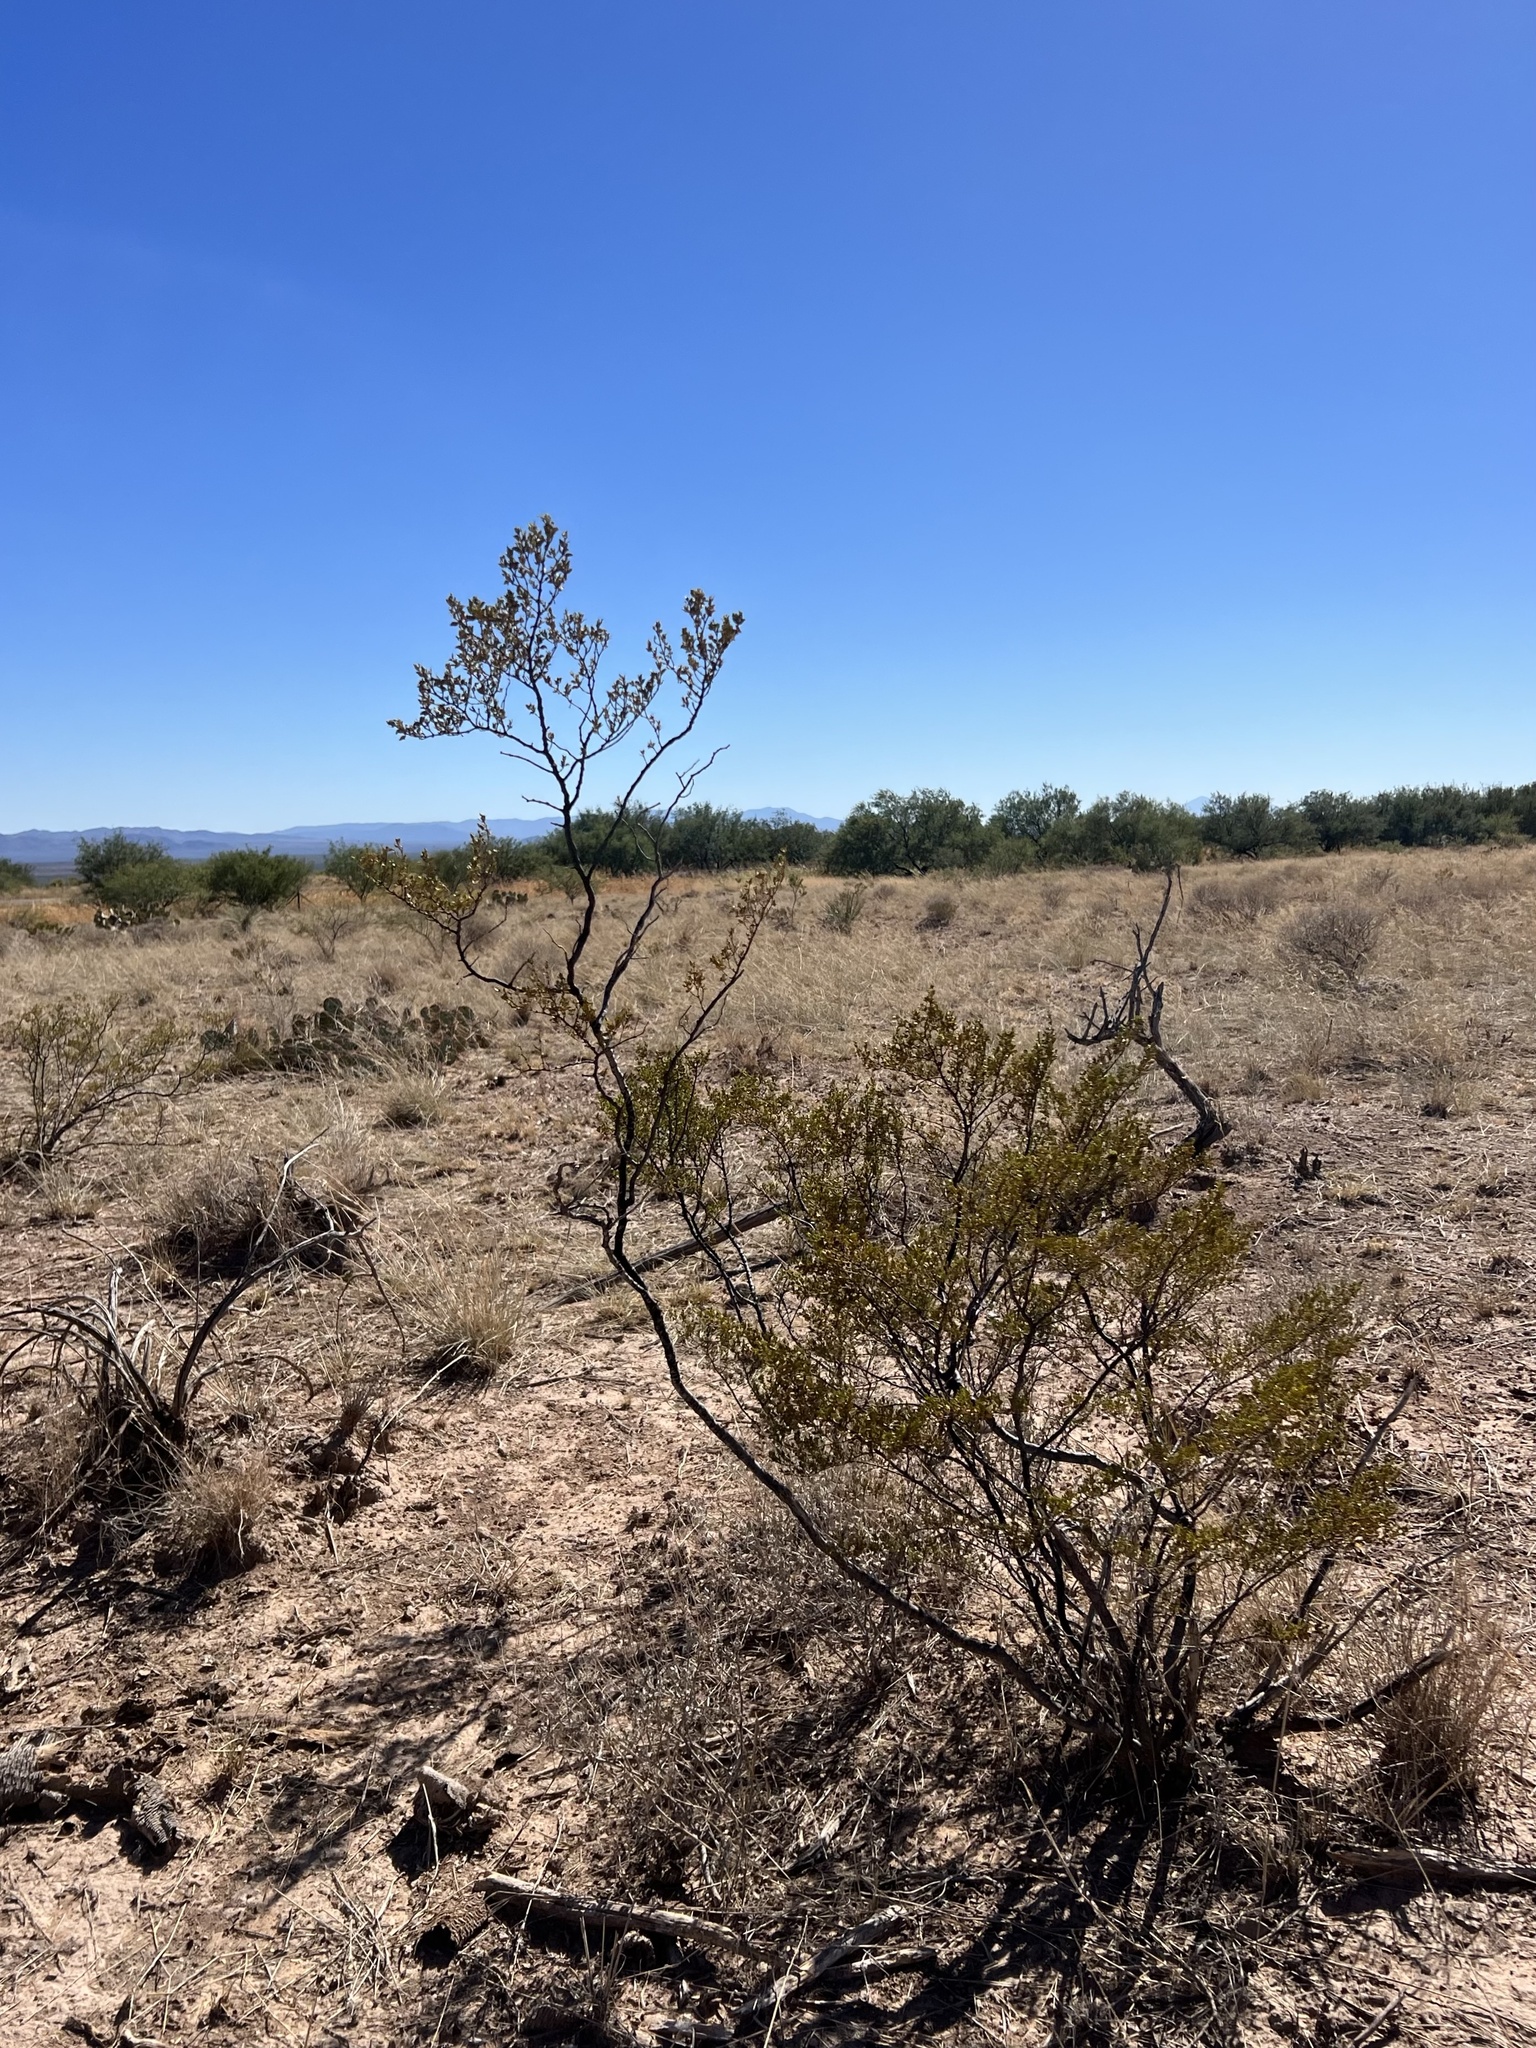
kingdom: Plantae
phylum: Tracheophyta
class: Magnoliopsida
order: Zygophyllales
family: Zygophyllaceae
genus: Larrea
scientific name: Larrea tridentata
